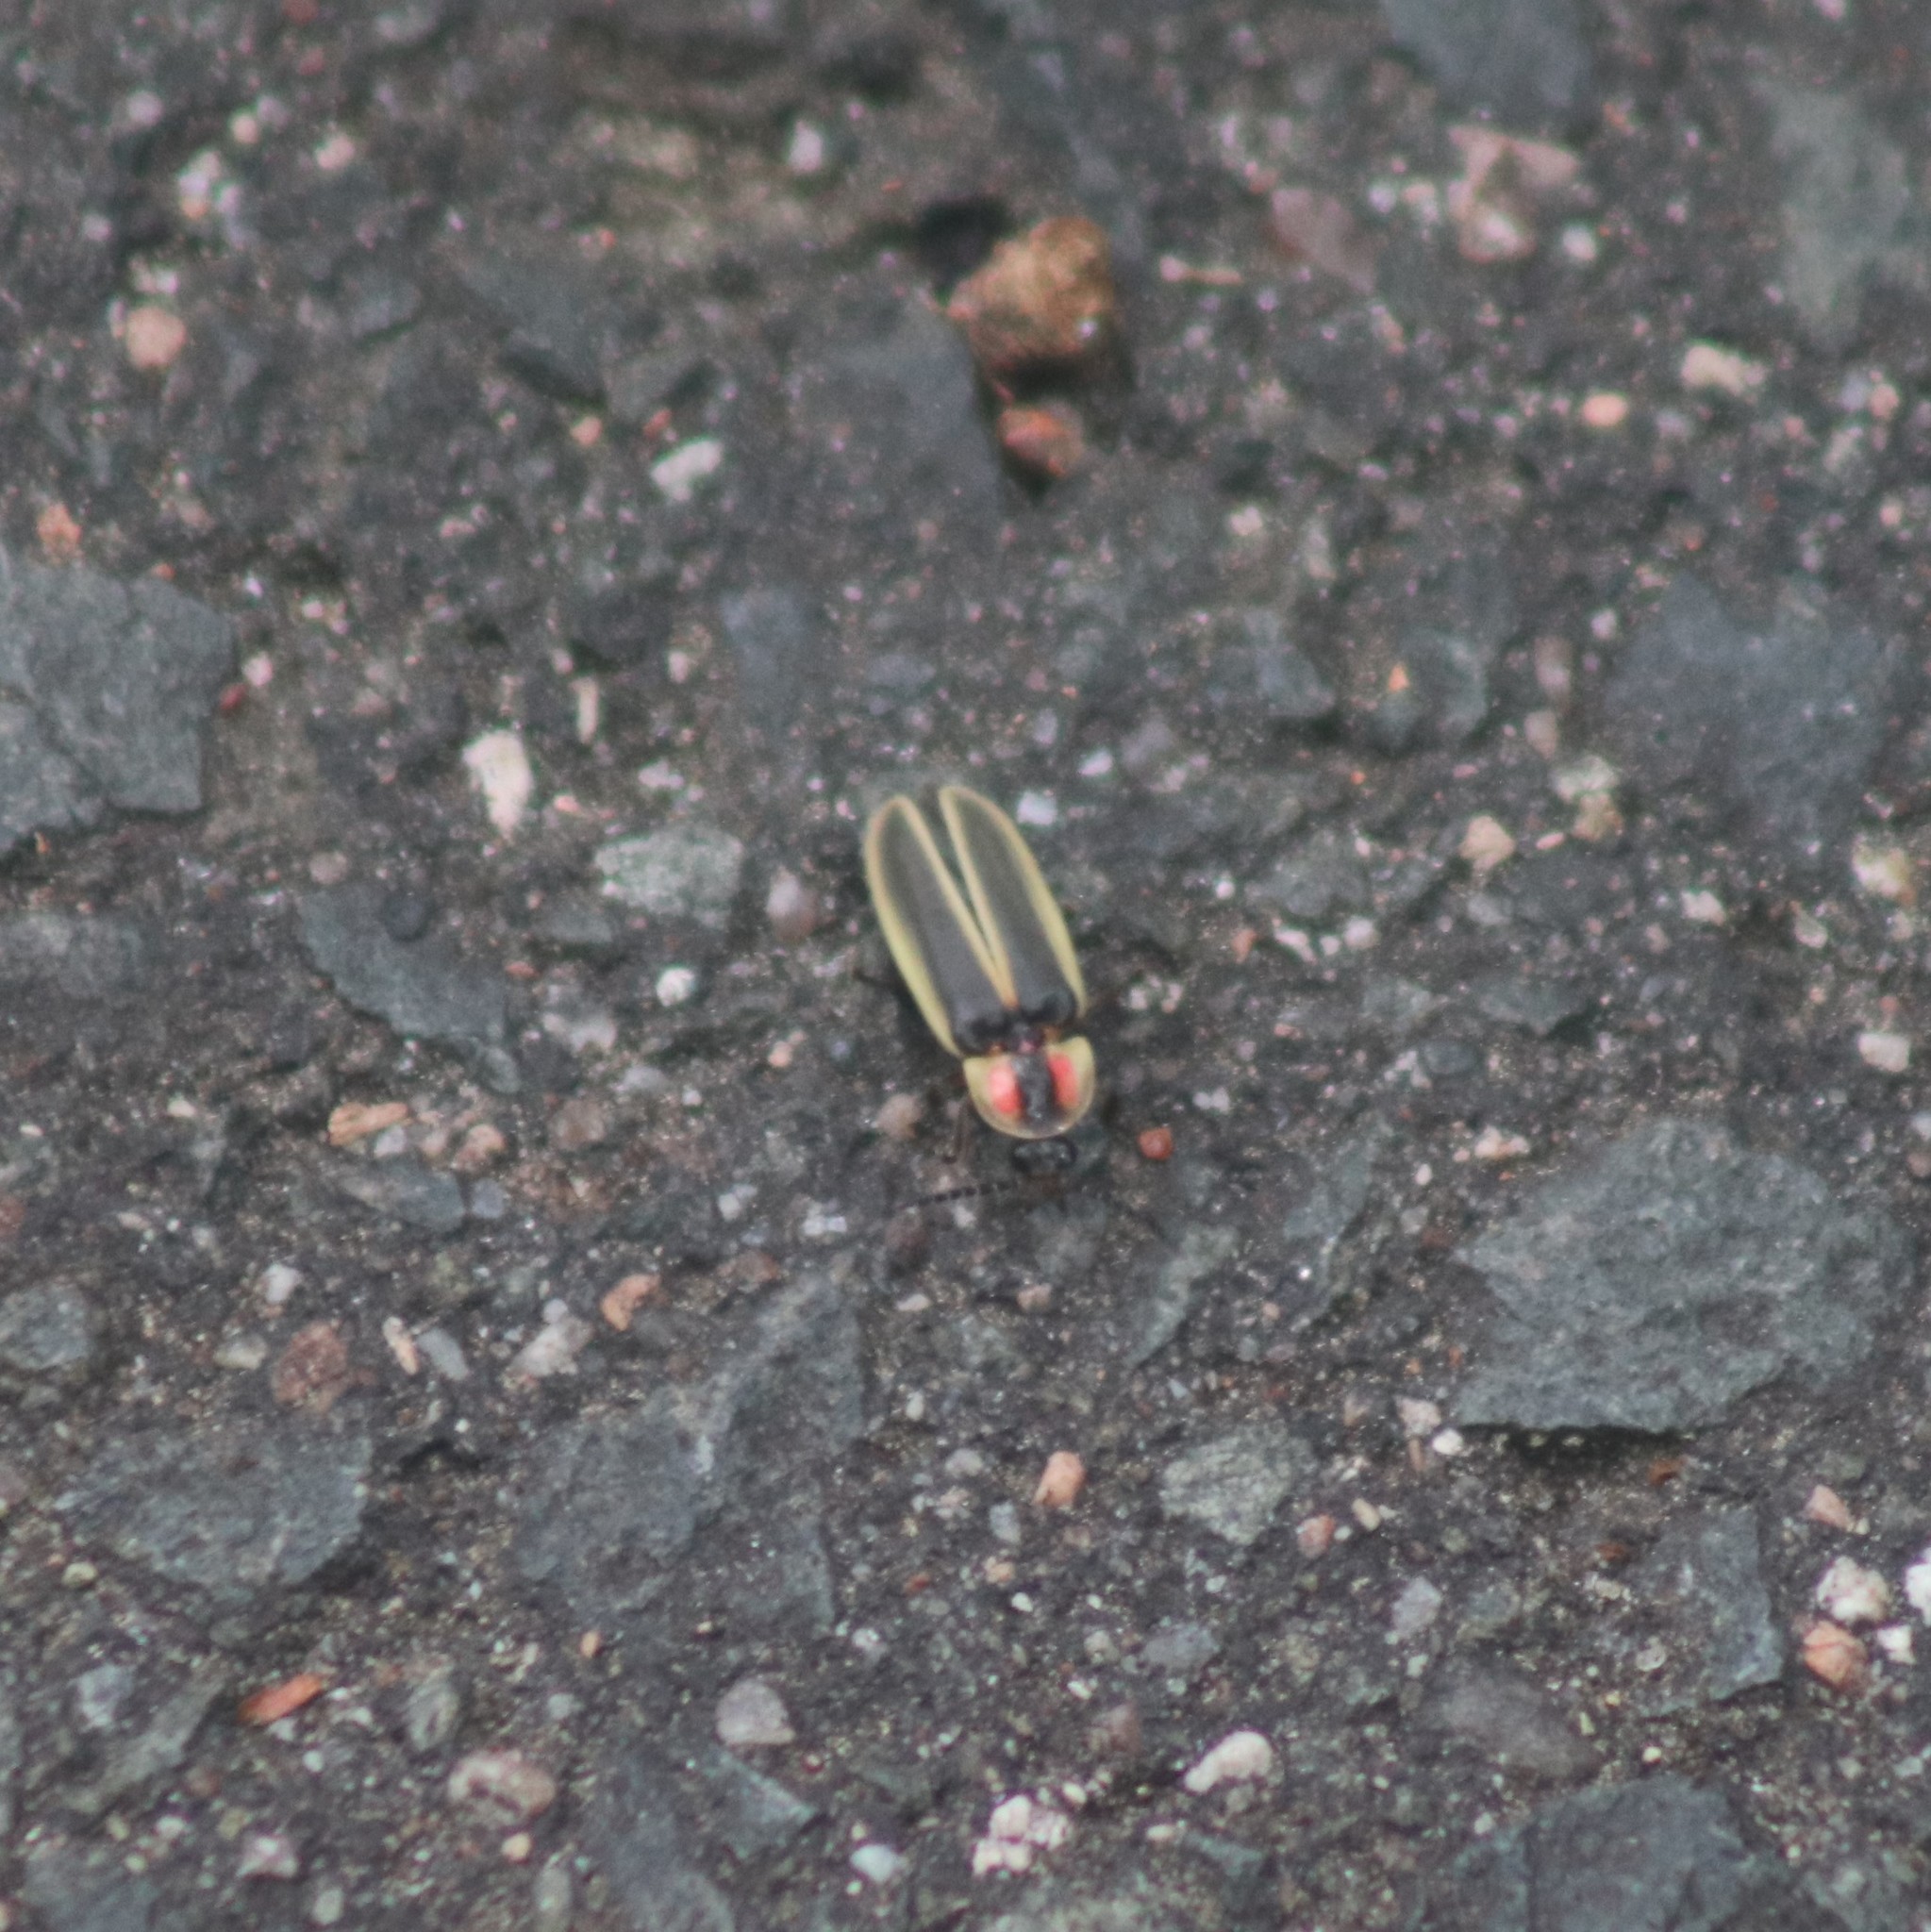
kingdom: Animalia
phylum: Arthropoda
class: Insecta
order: Coleoptera
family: Lampyridae
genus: Photinus
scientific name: Photinus pyralis
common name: Big dipper firefly
